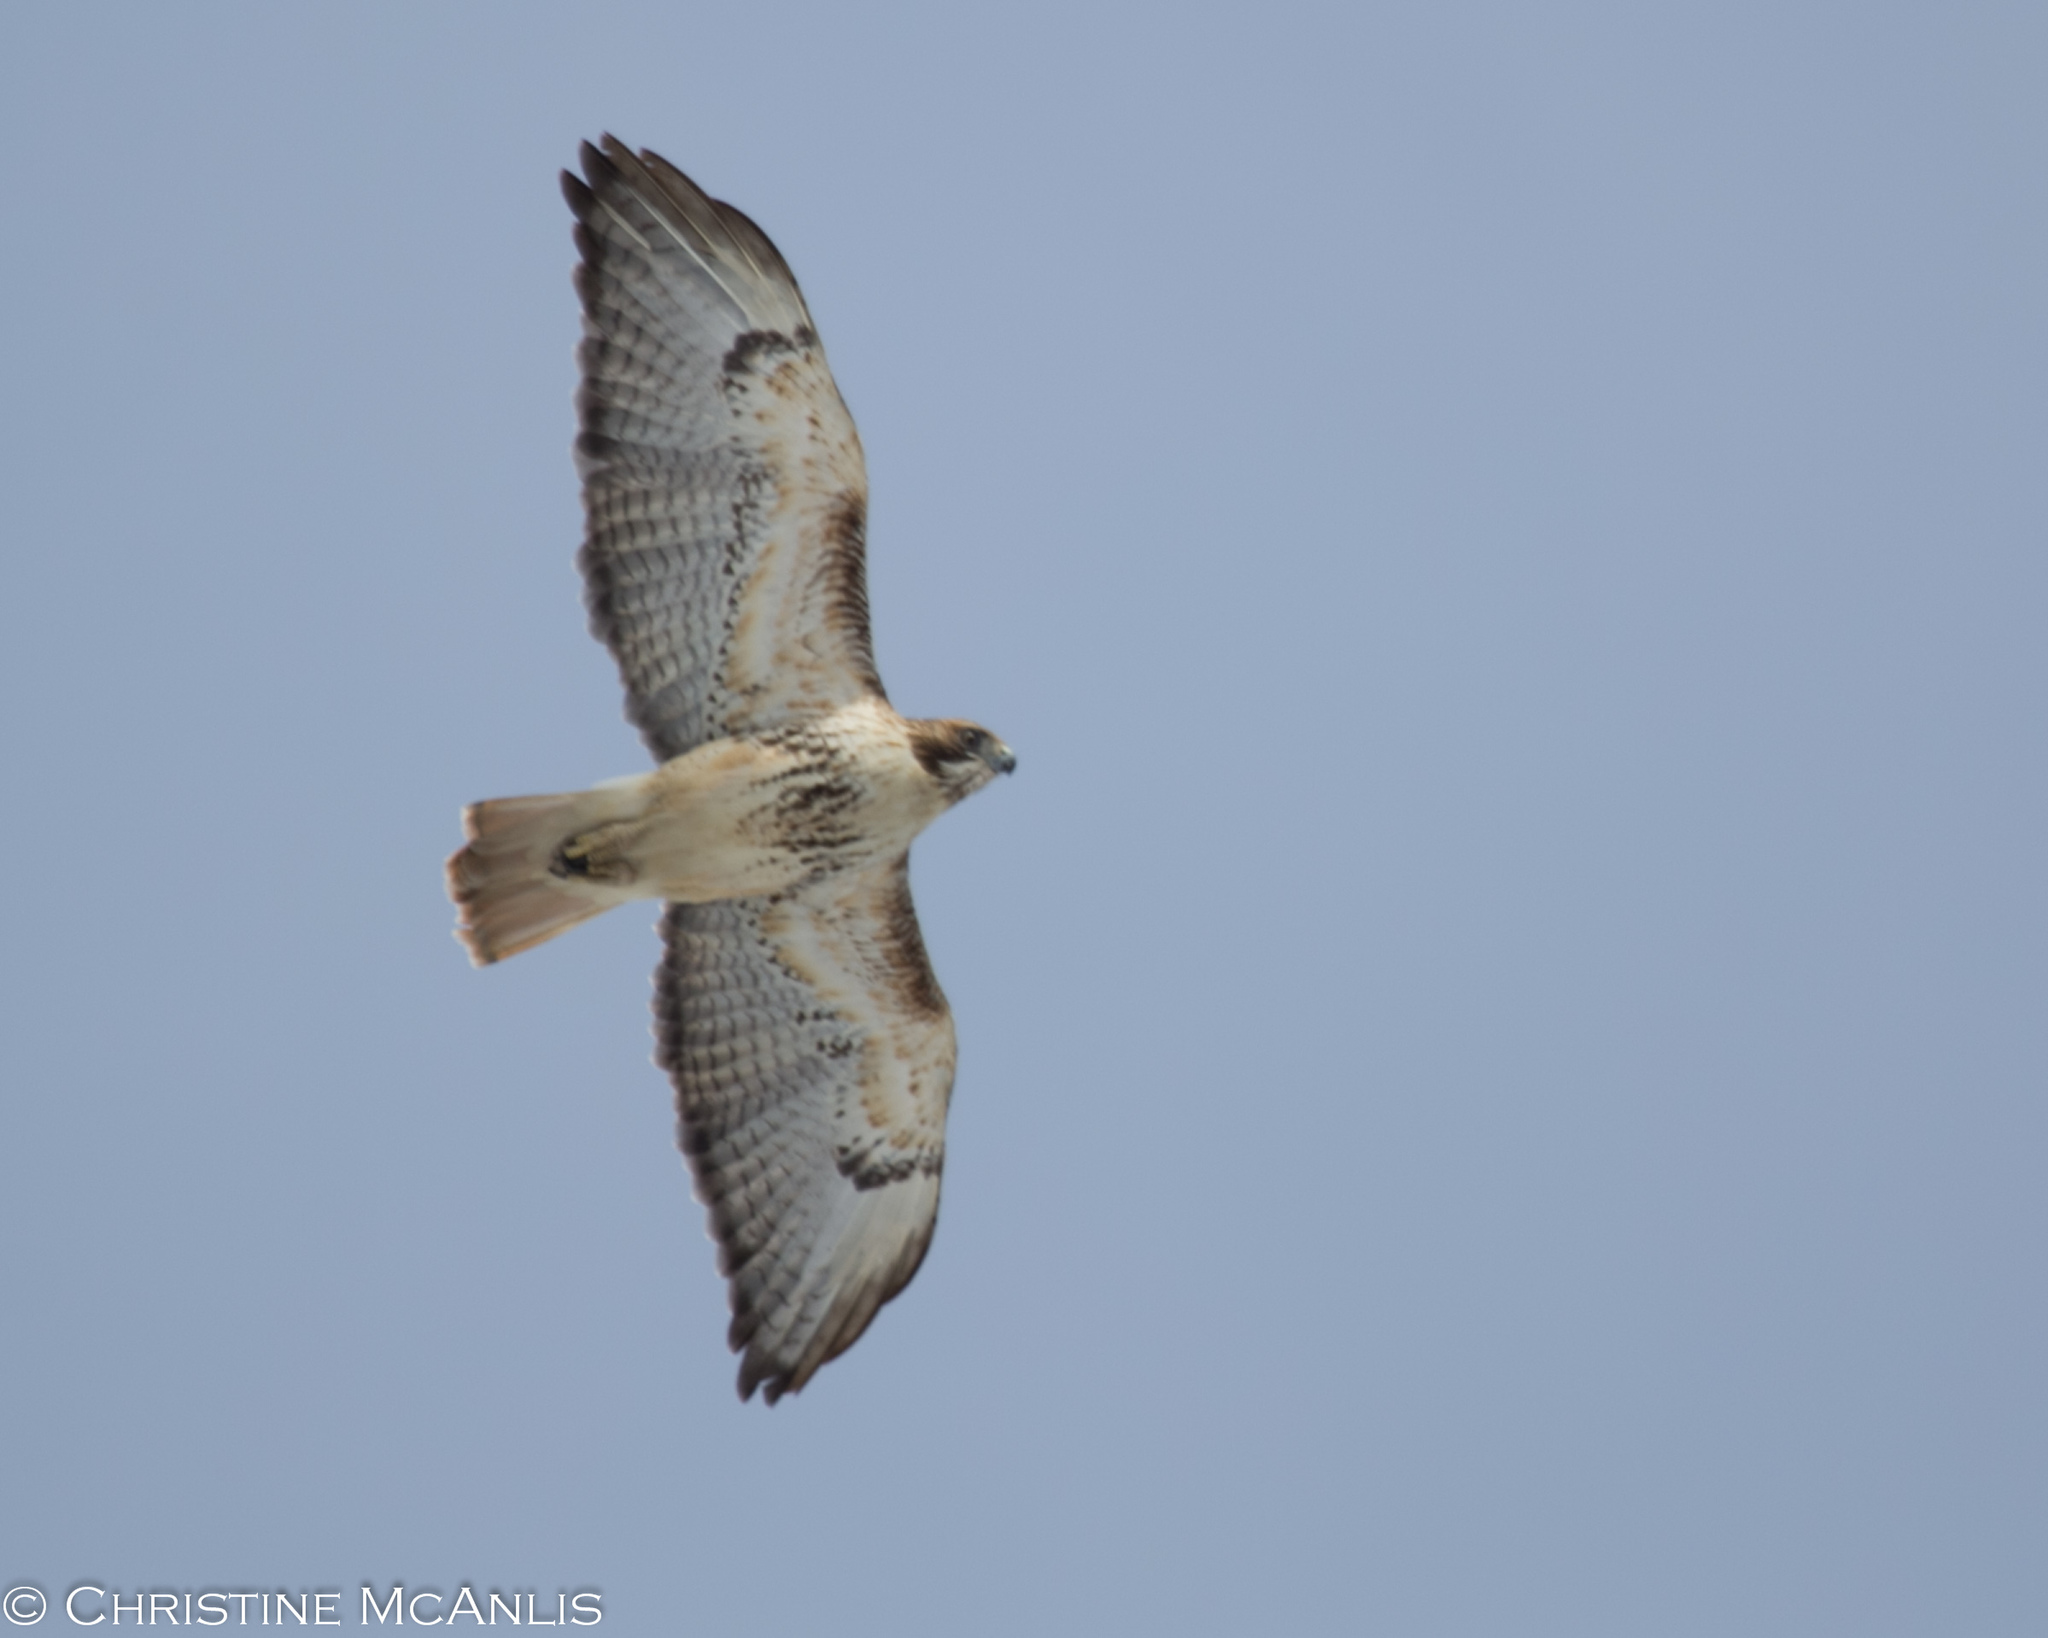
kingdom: Animalia
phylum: Chordata
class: Aves
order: Accipitriformes
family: Accipitridae
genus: Buteo
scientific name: Buteo jamaicensis
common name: Red-tailed hawk
